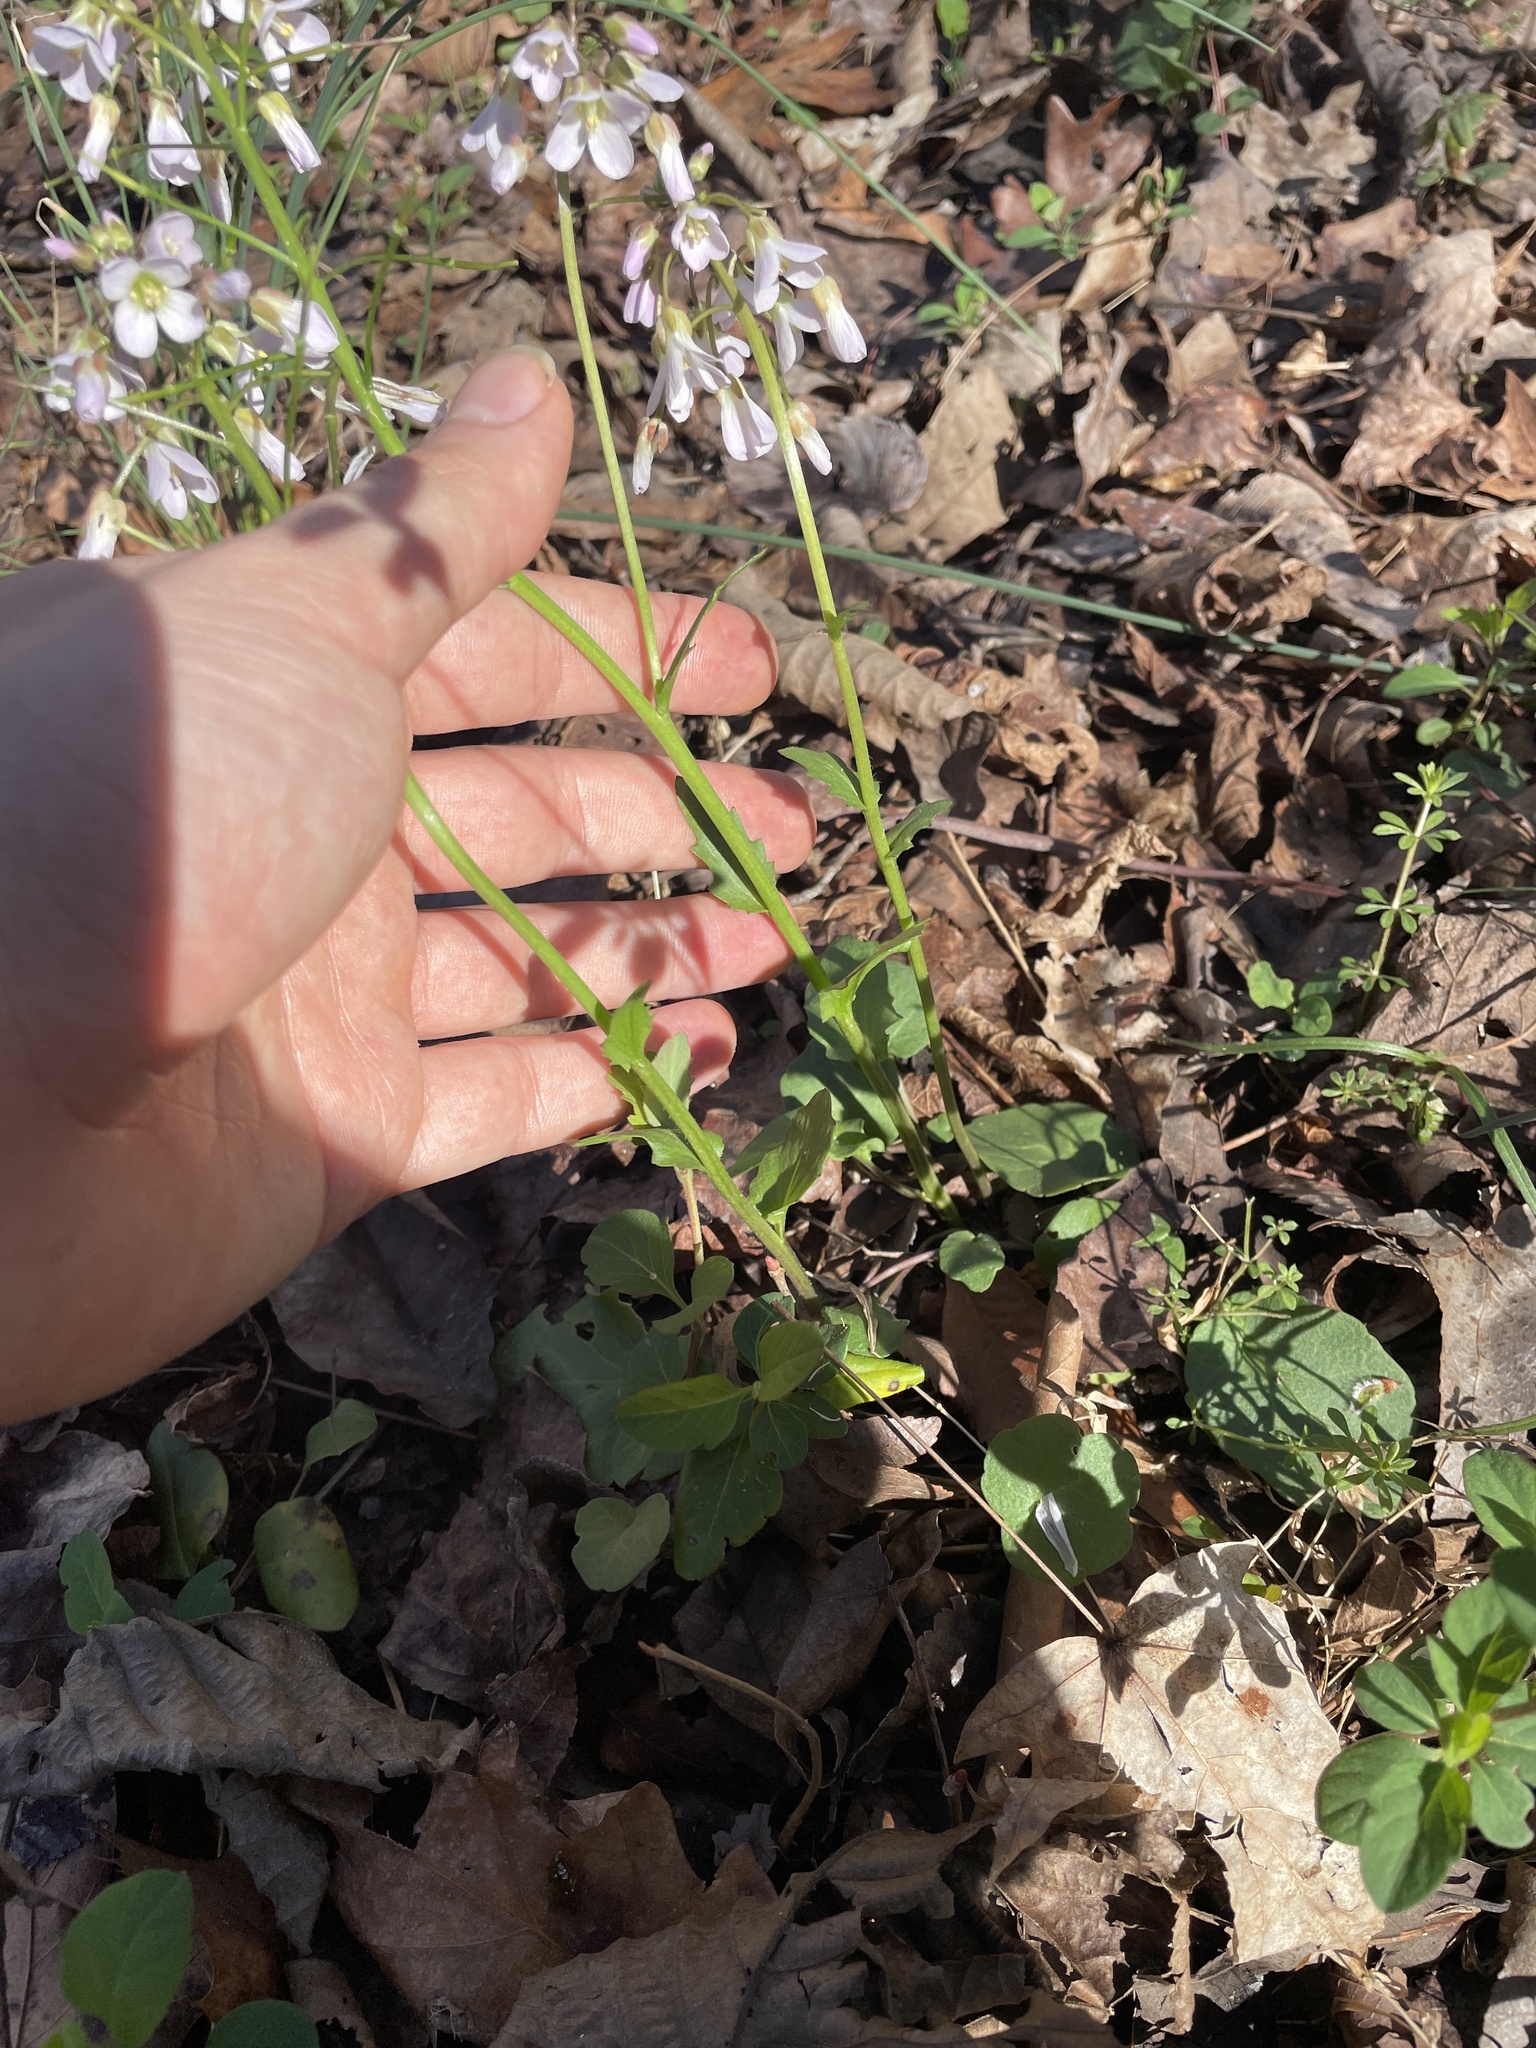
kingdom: Plantae
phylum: Tracheophyta
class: Magnoliopsida
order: Brassicales
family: Brassicaceae
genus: Cardamine
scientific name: Cardamine douglassii
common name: Purple cress
